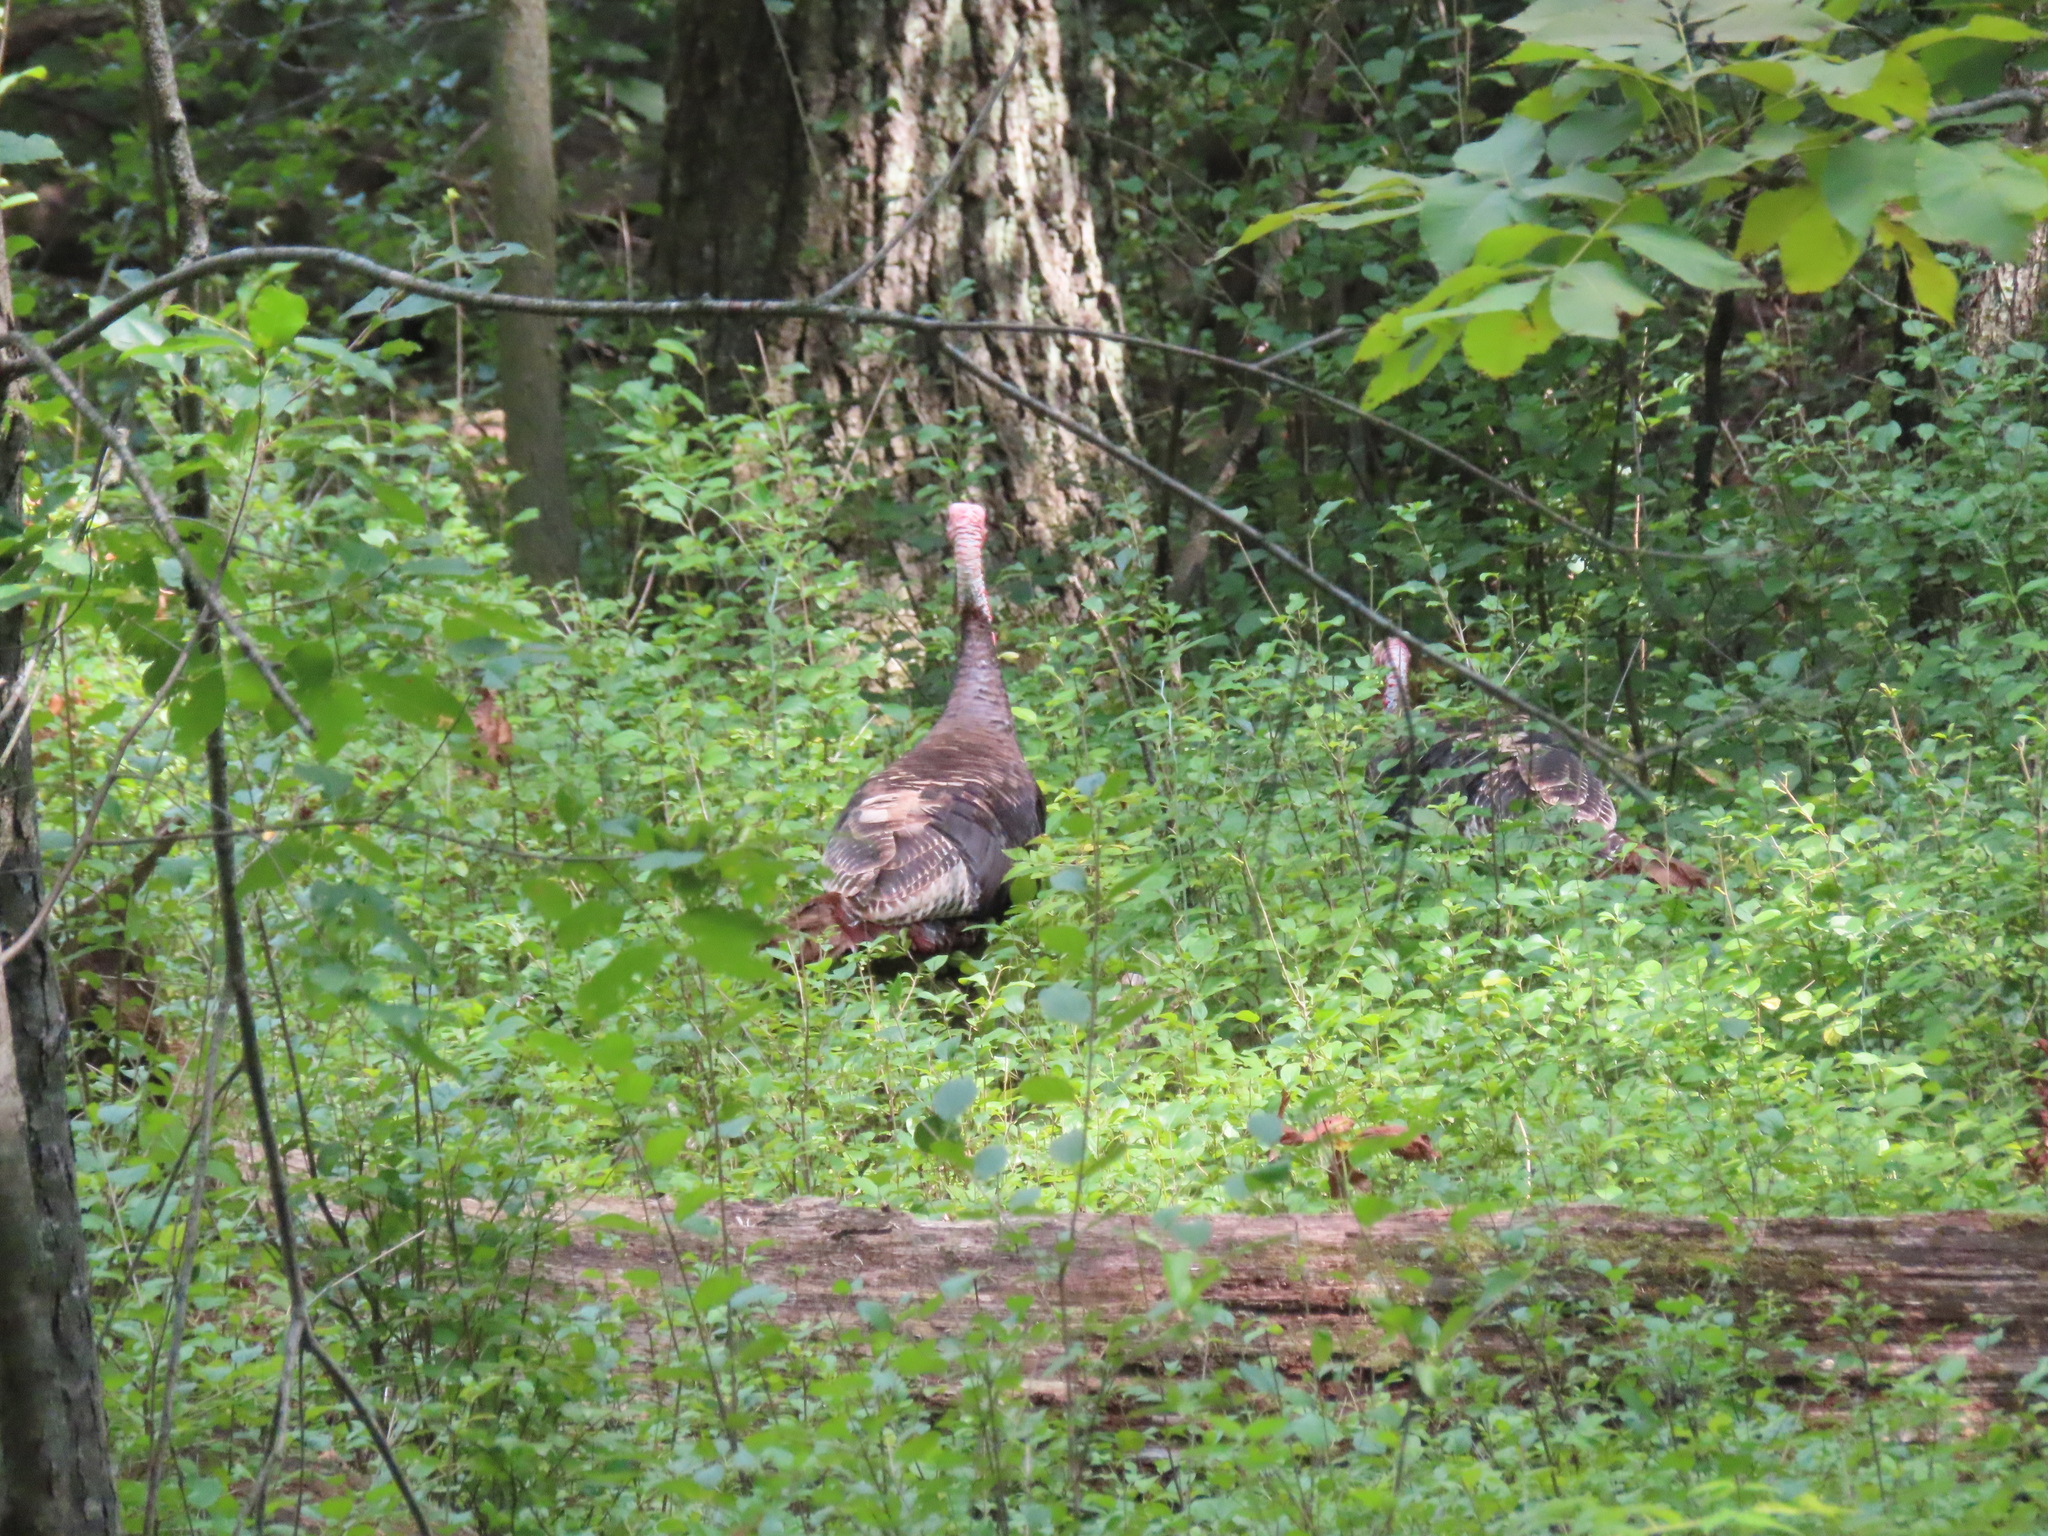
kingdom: Animalia
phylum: Chordata
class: Aves
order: Galliformes
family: Phasianidae
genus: Meleagris
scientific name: Meleagris gallopavo
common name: Wild turkey
